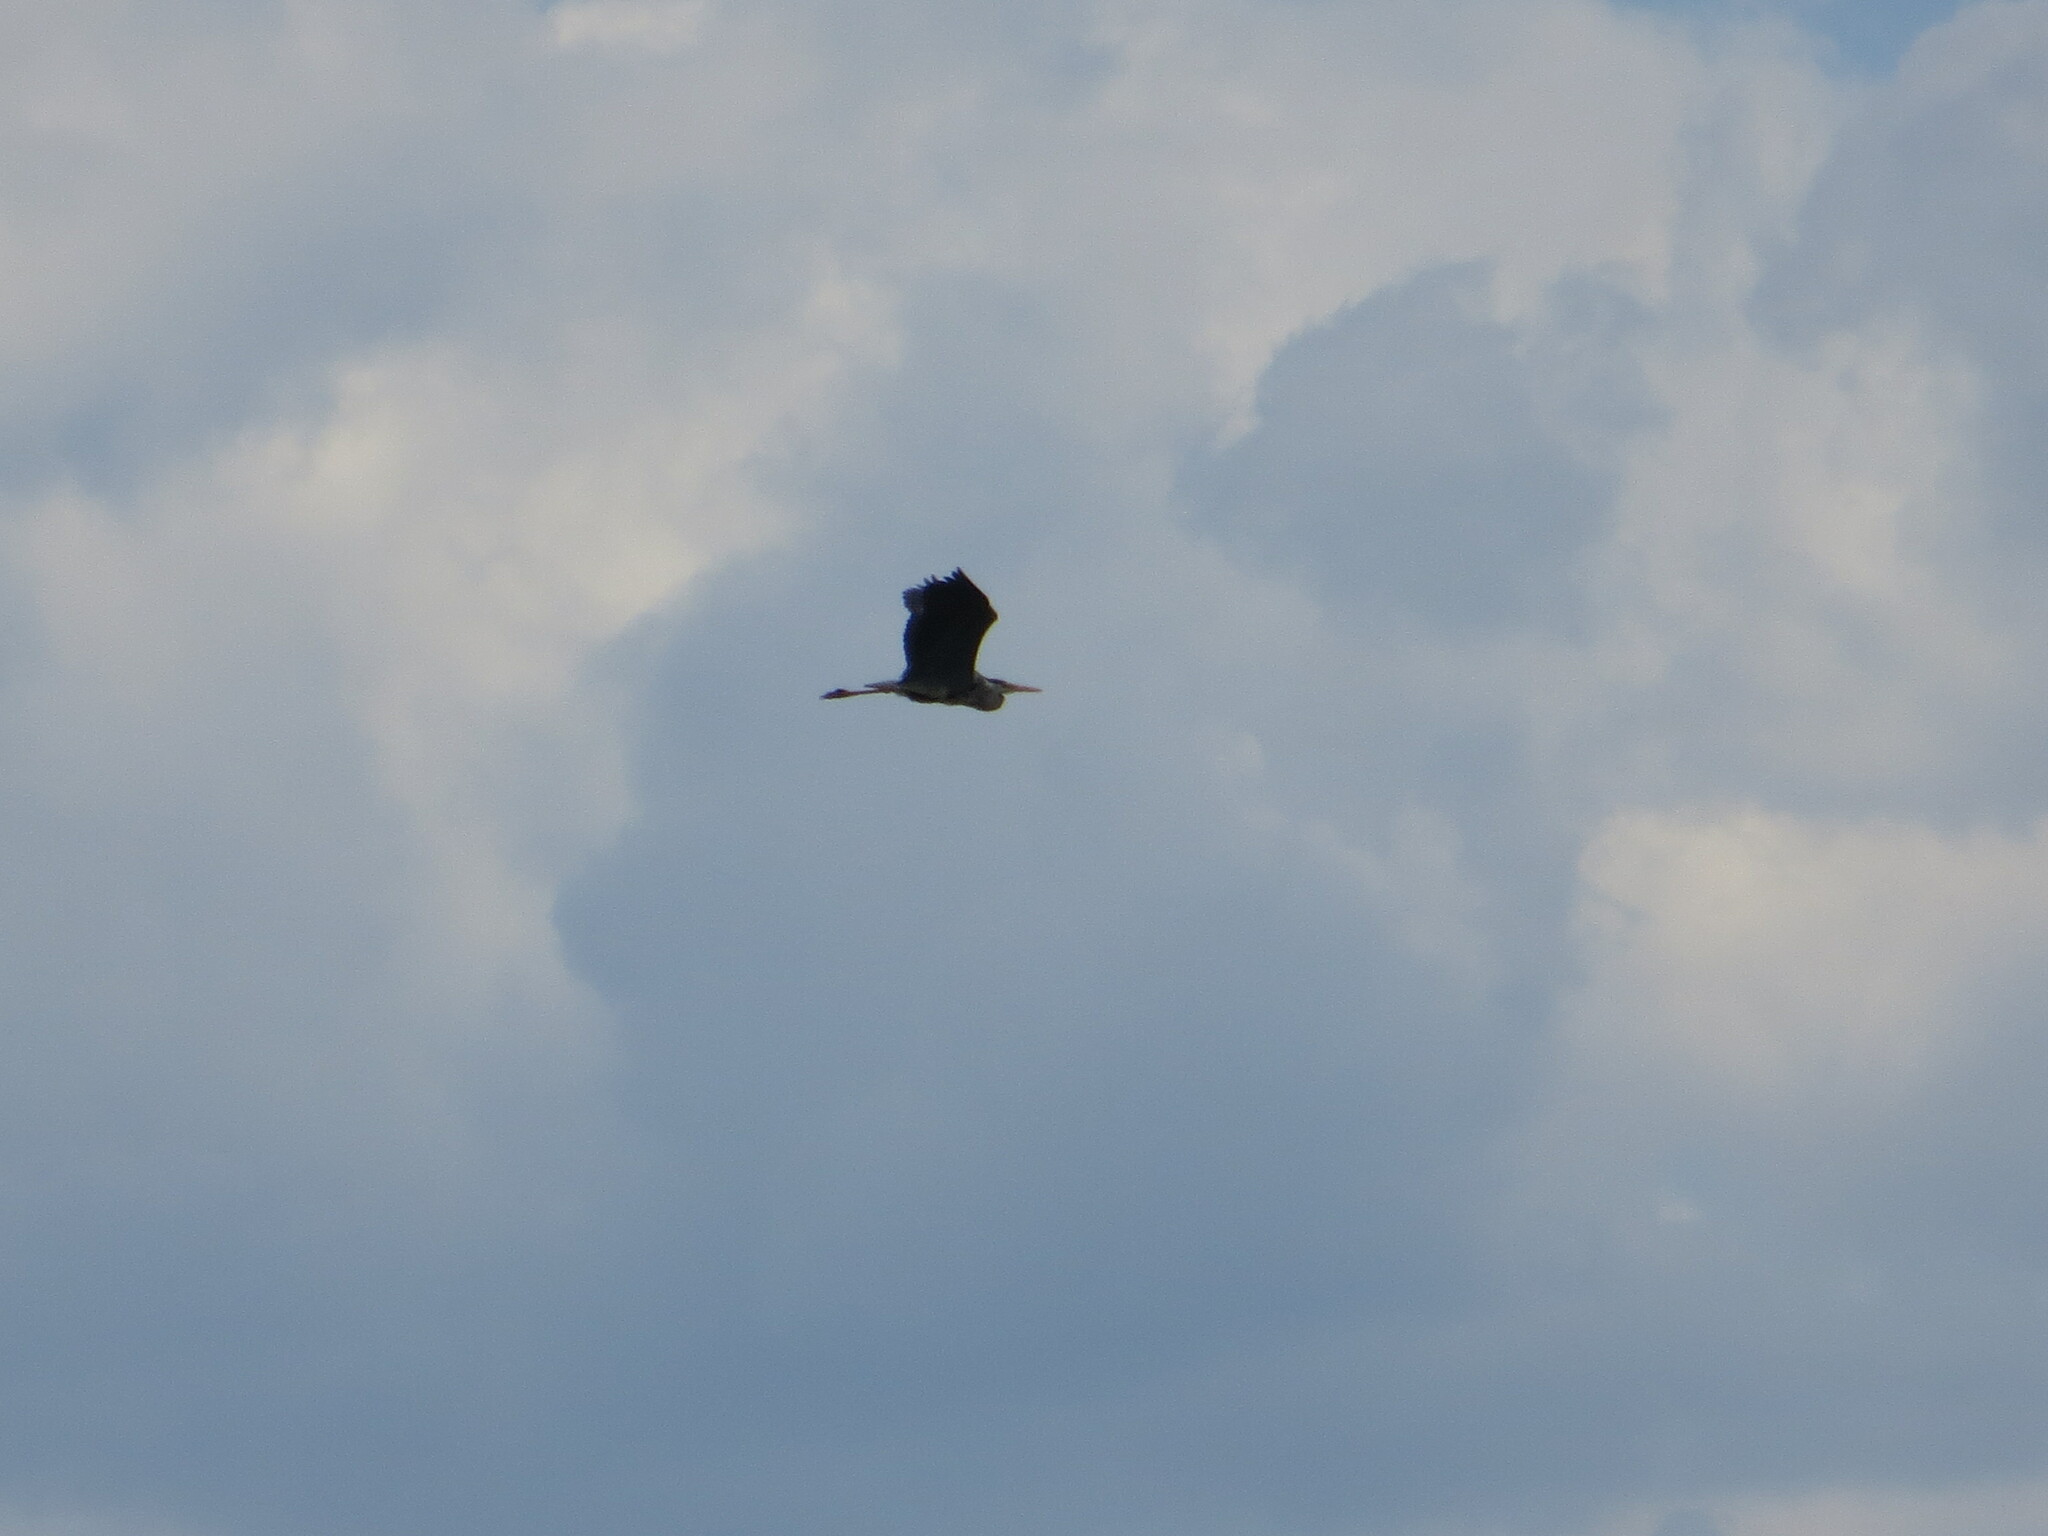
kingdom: Animalia
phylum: Chordata
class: Aves
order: Pelecaniformes
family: Ardeidae
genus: Ardea
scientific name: Ardea cinerea
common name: Grey heron
